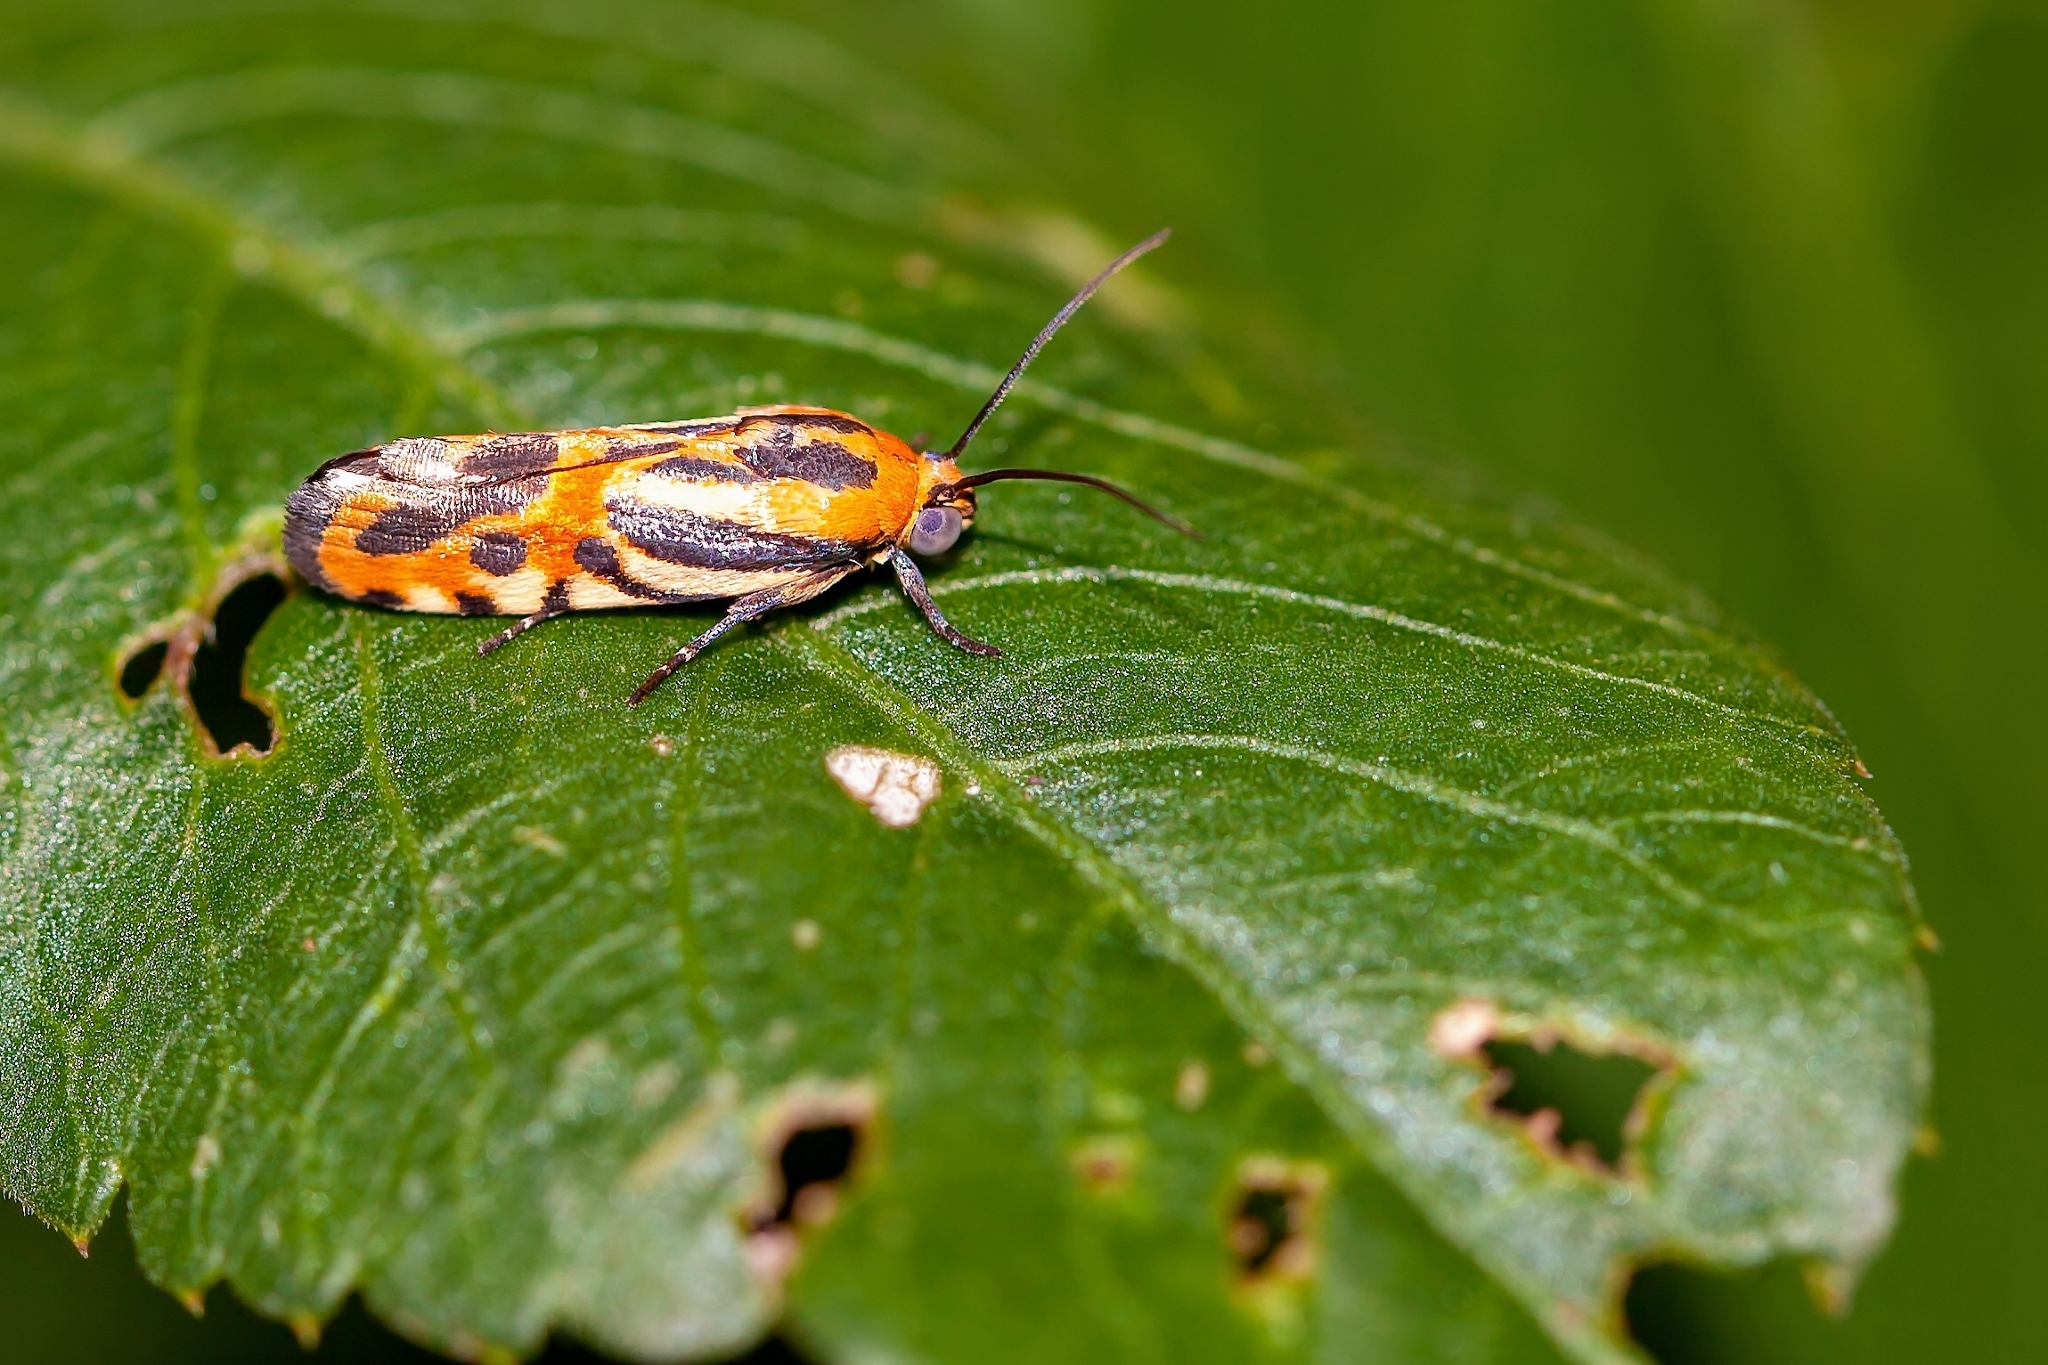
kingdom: Animalia
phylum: Arthropoda
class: Insecta
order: Lepidoptera
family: Noctuidae
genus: Acontia
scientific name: Acontia onagrus
